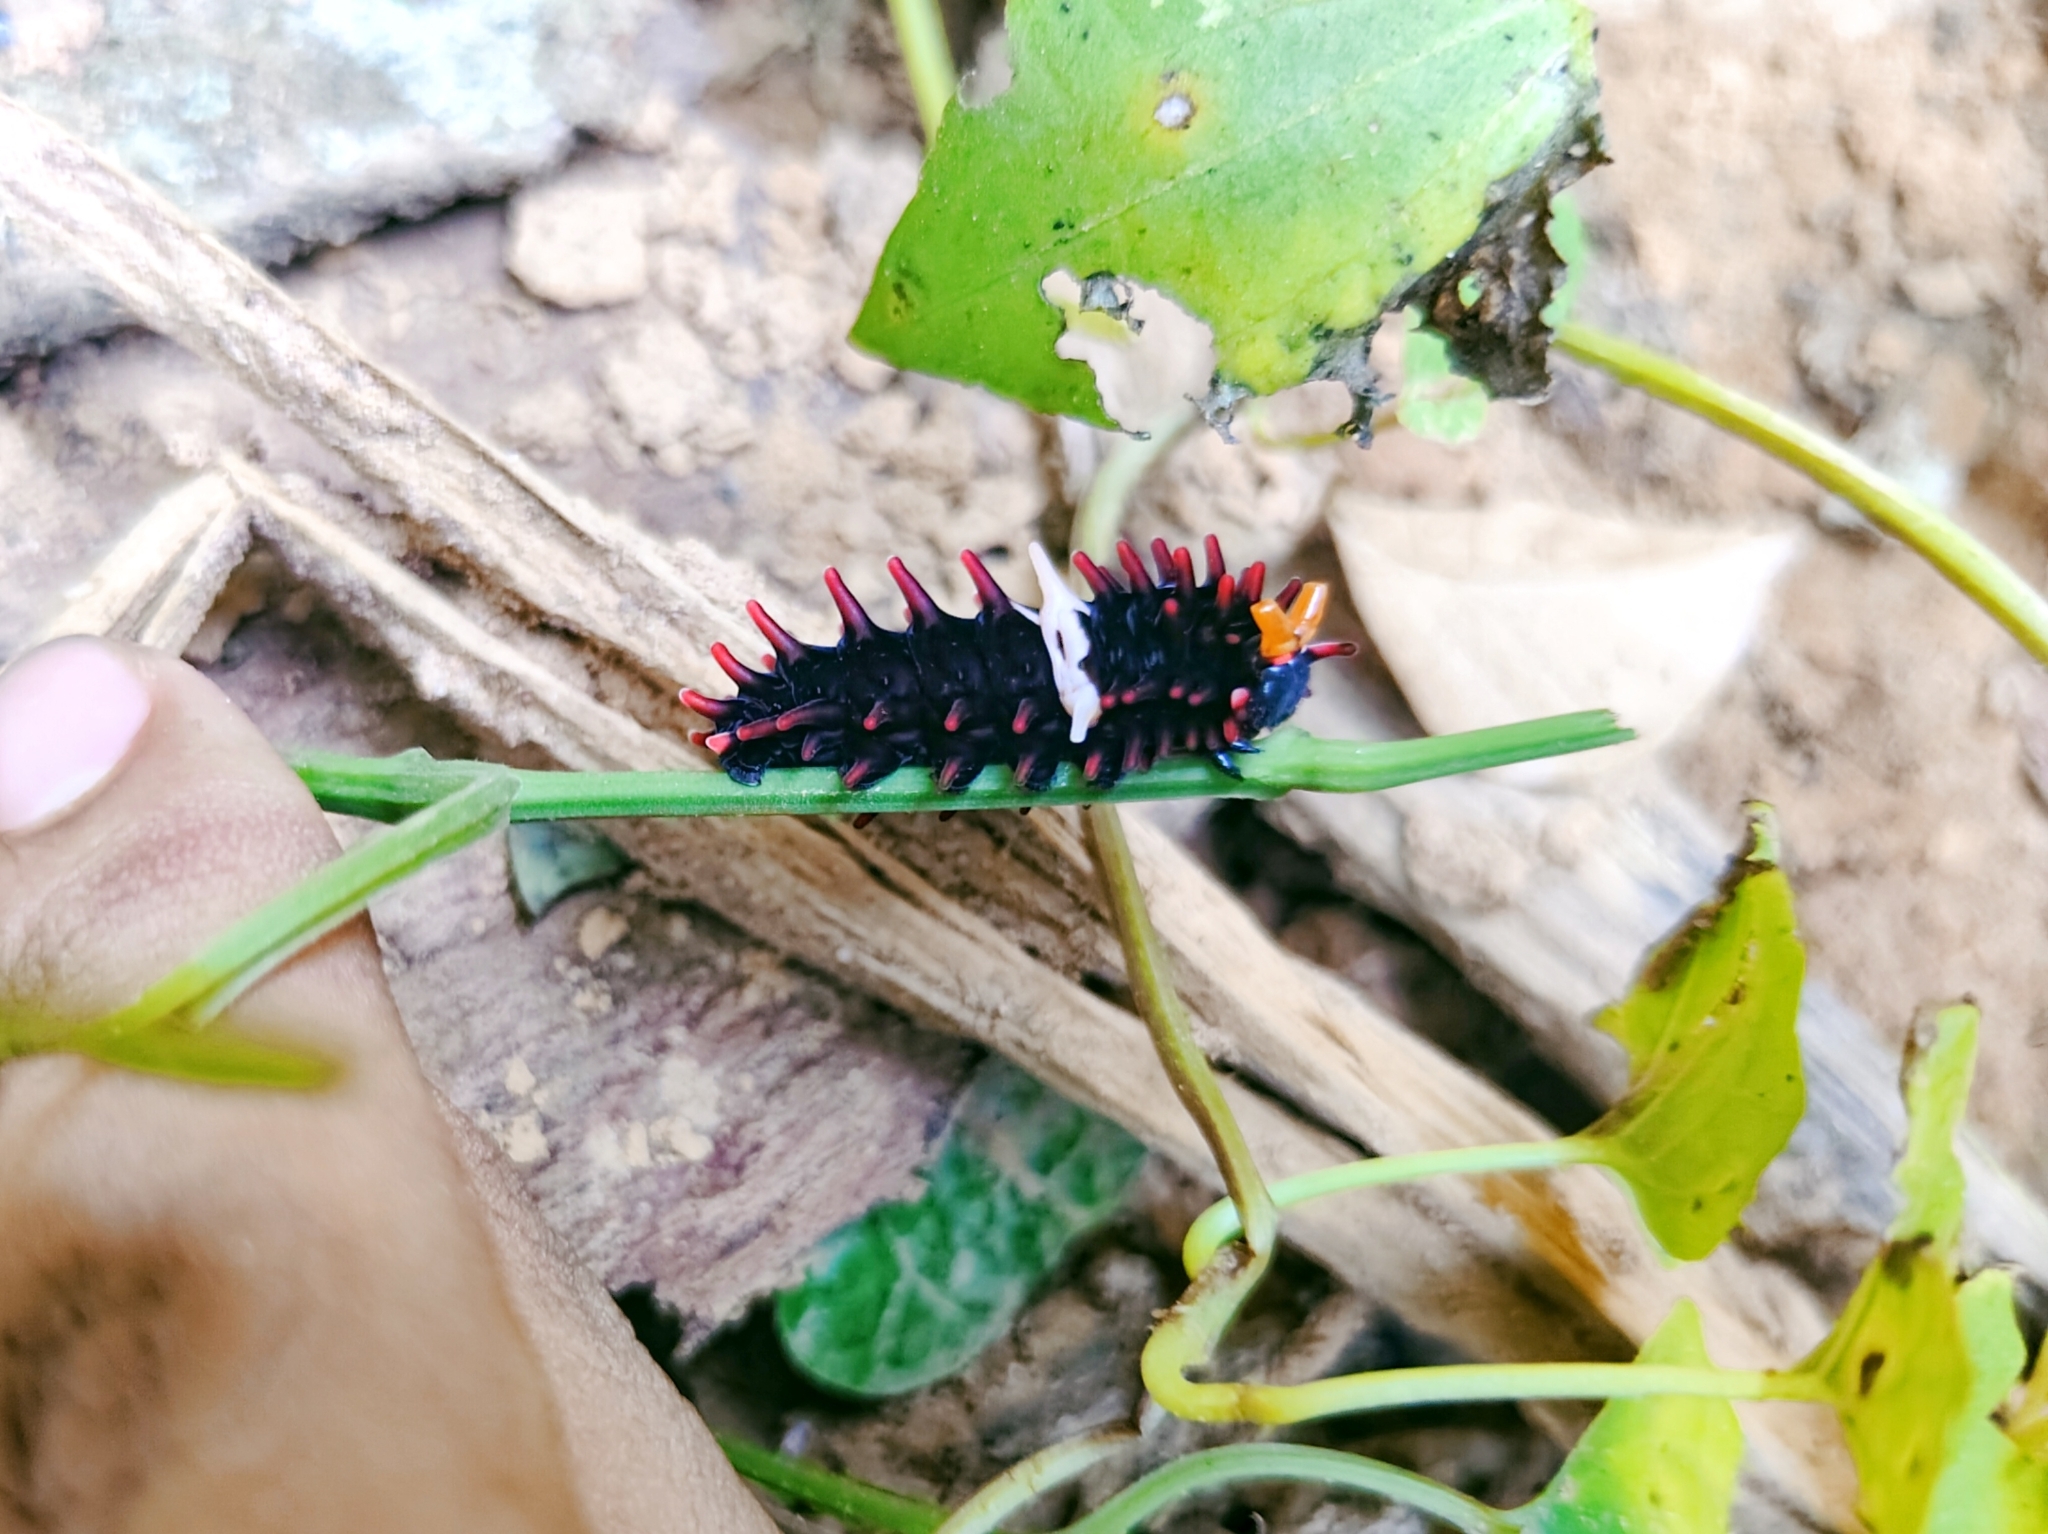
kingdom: Animalia
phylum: Arthropoda
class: Insecta
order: Lepidoptera
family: Papilionidae
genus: Pachliopta
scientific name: Pachliopta aristolochiae
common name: Common rose
